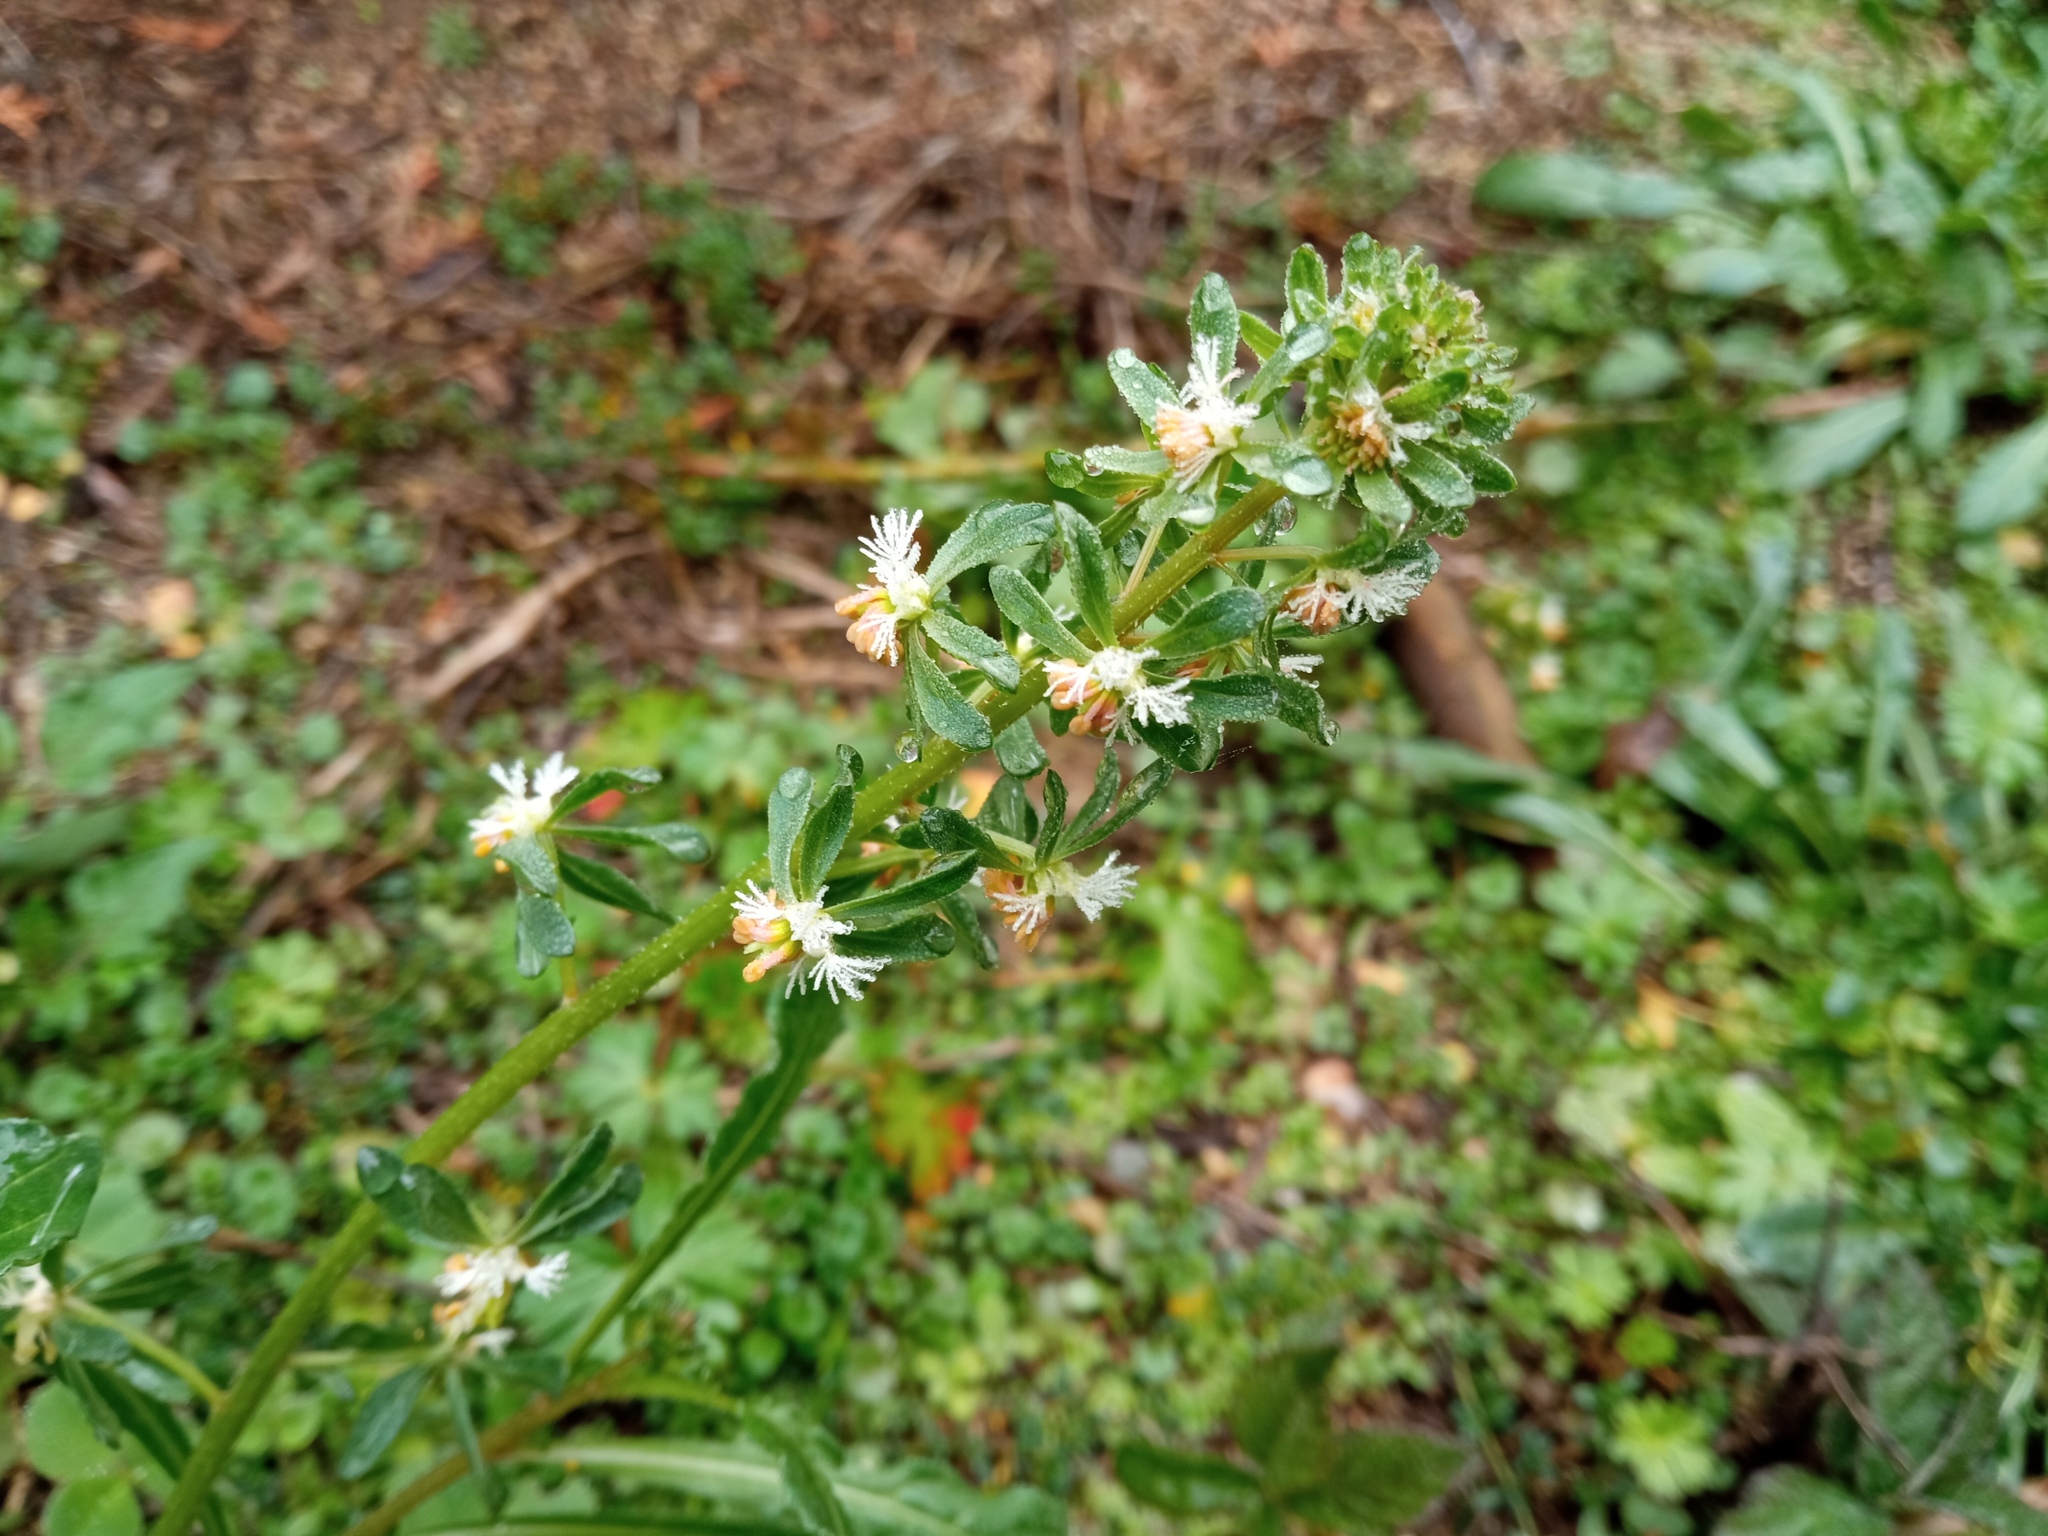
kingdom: Plantae
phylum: Tracheophyta
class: Magnoliopsida
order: Brassicales
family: Resedaceae
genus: Reseda
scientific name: Reseda phyteuma
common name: Corn mignonette
